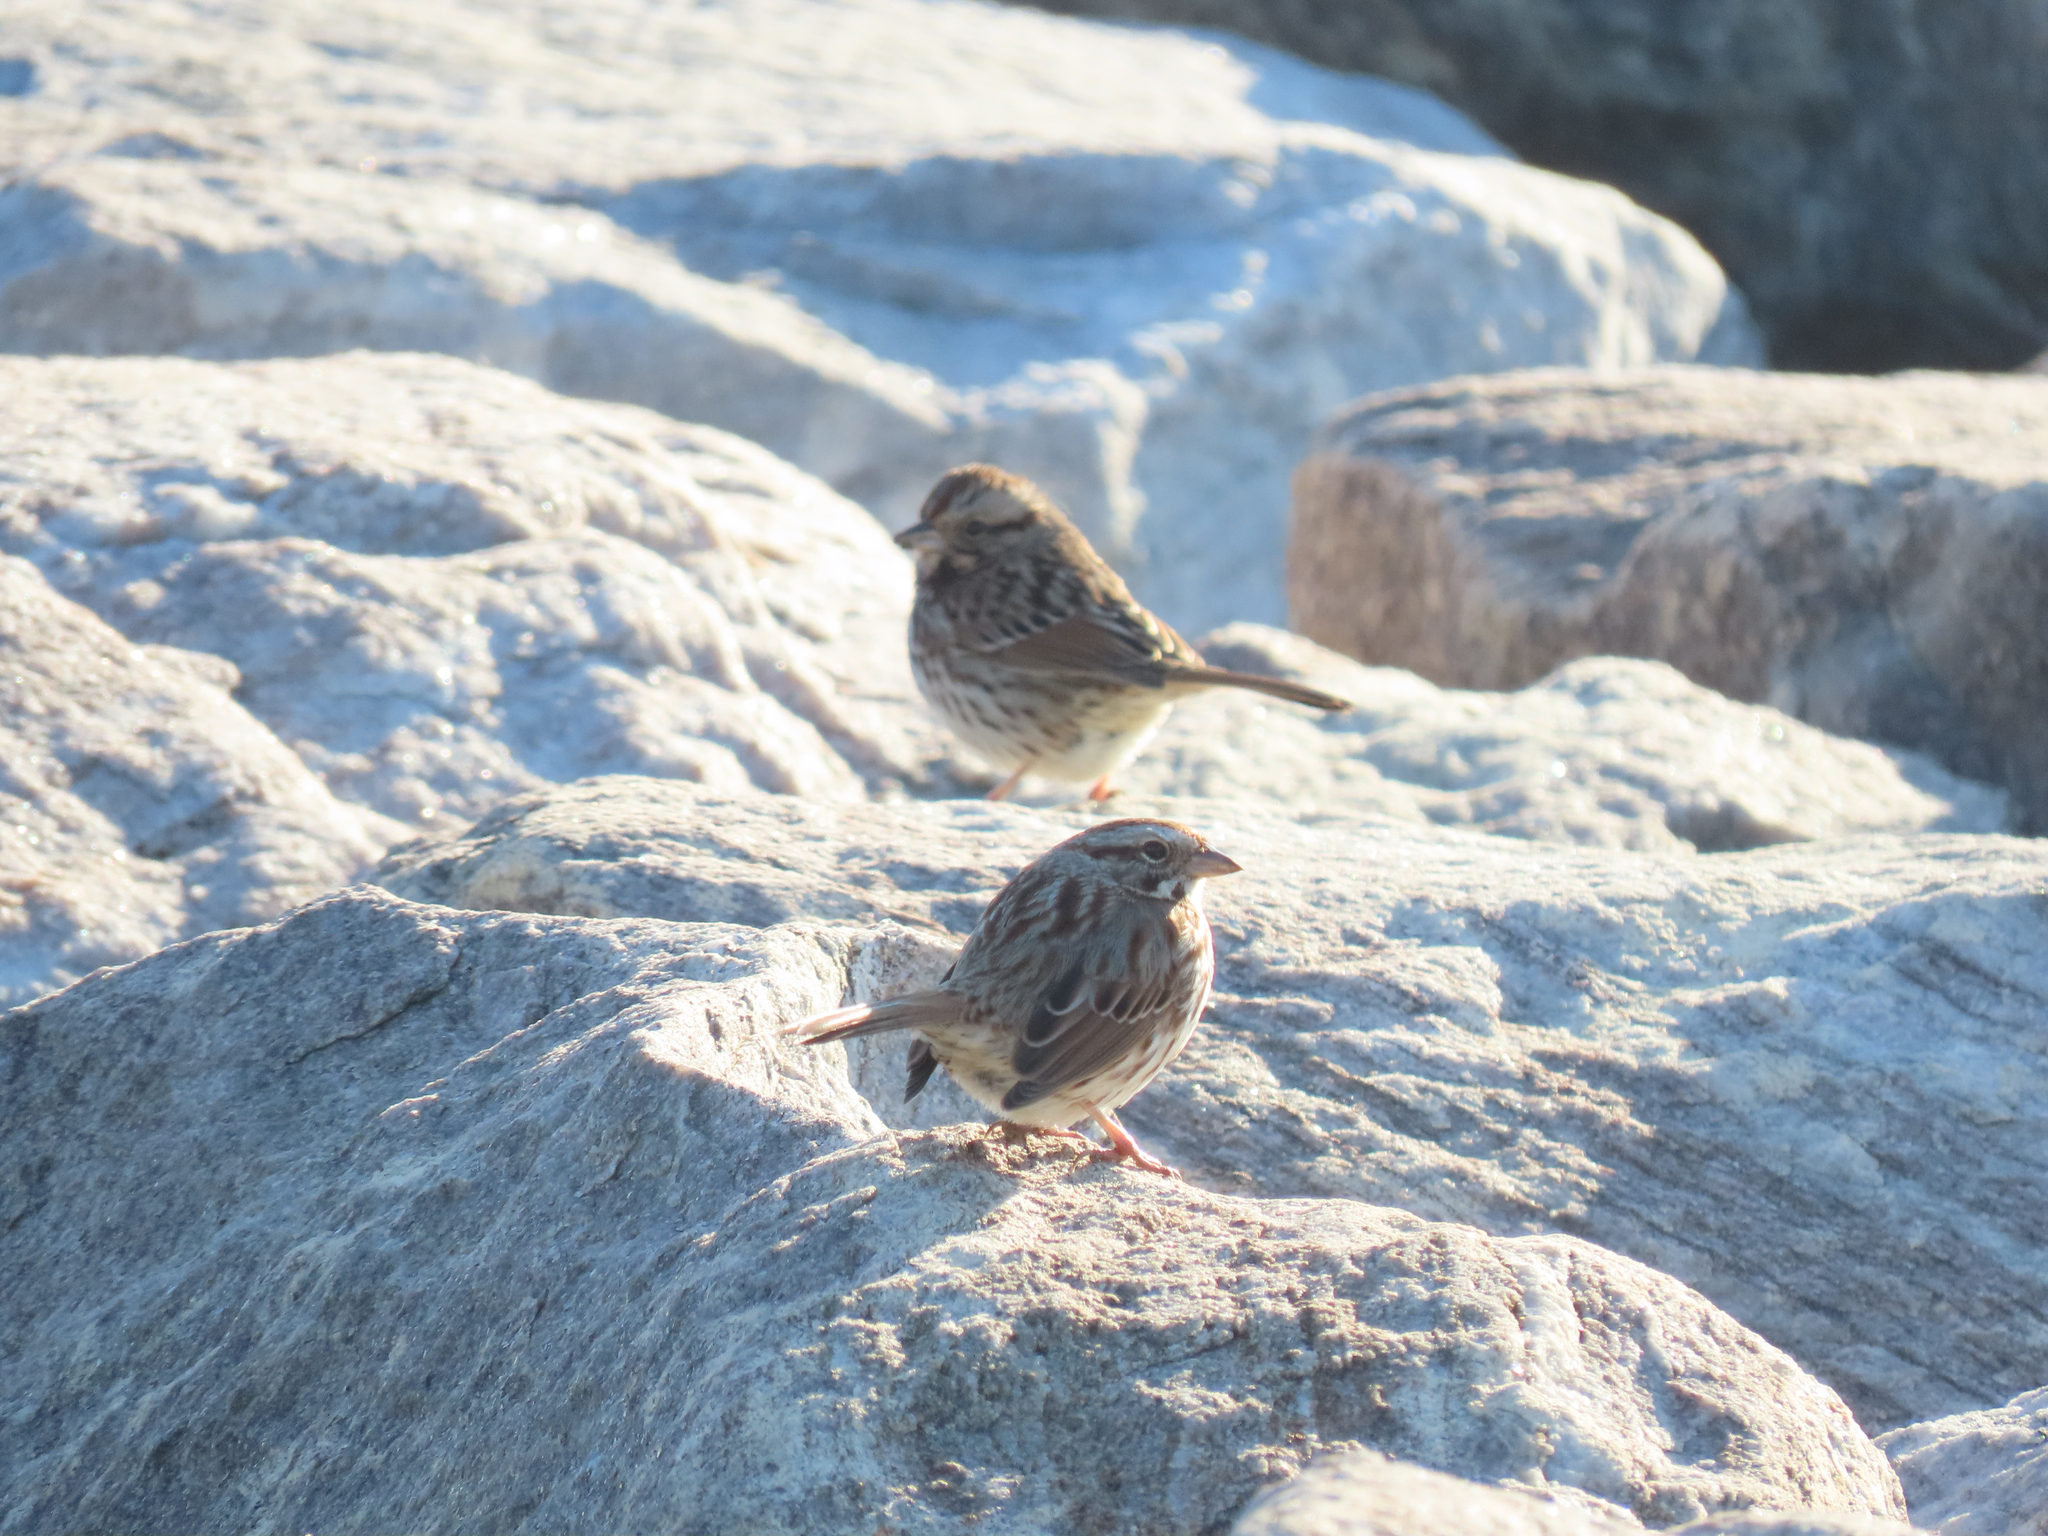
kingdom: Animalia
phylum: Chordata
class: Aves
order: Passeriformes
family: Passerellidae
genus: Melospiza
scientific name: Melospiza melodia
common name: Song sparrow
